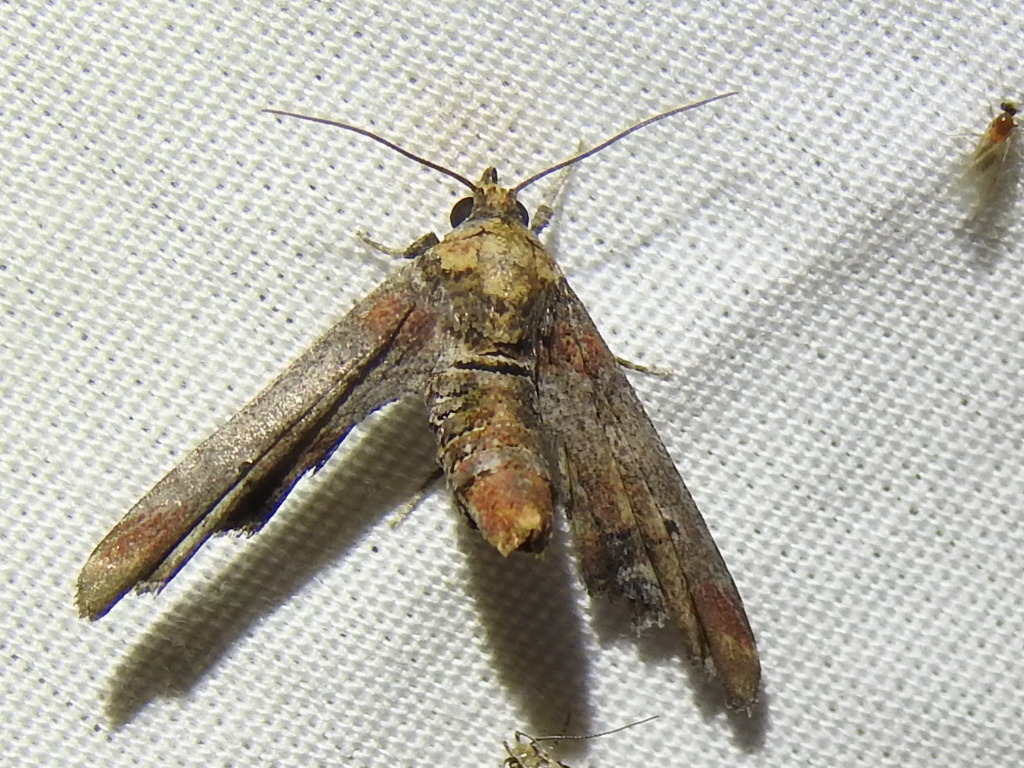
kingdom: Animalia
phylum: Arthropoda
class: Insecta
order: Lepidoptera
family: Euteliidae
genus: Marathyssa
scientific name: Marathyssa inficita
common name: Dark marathyssa moth
